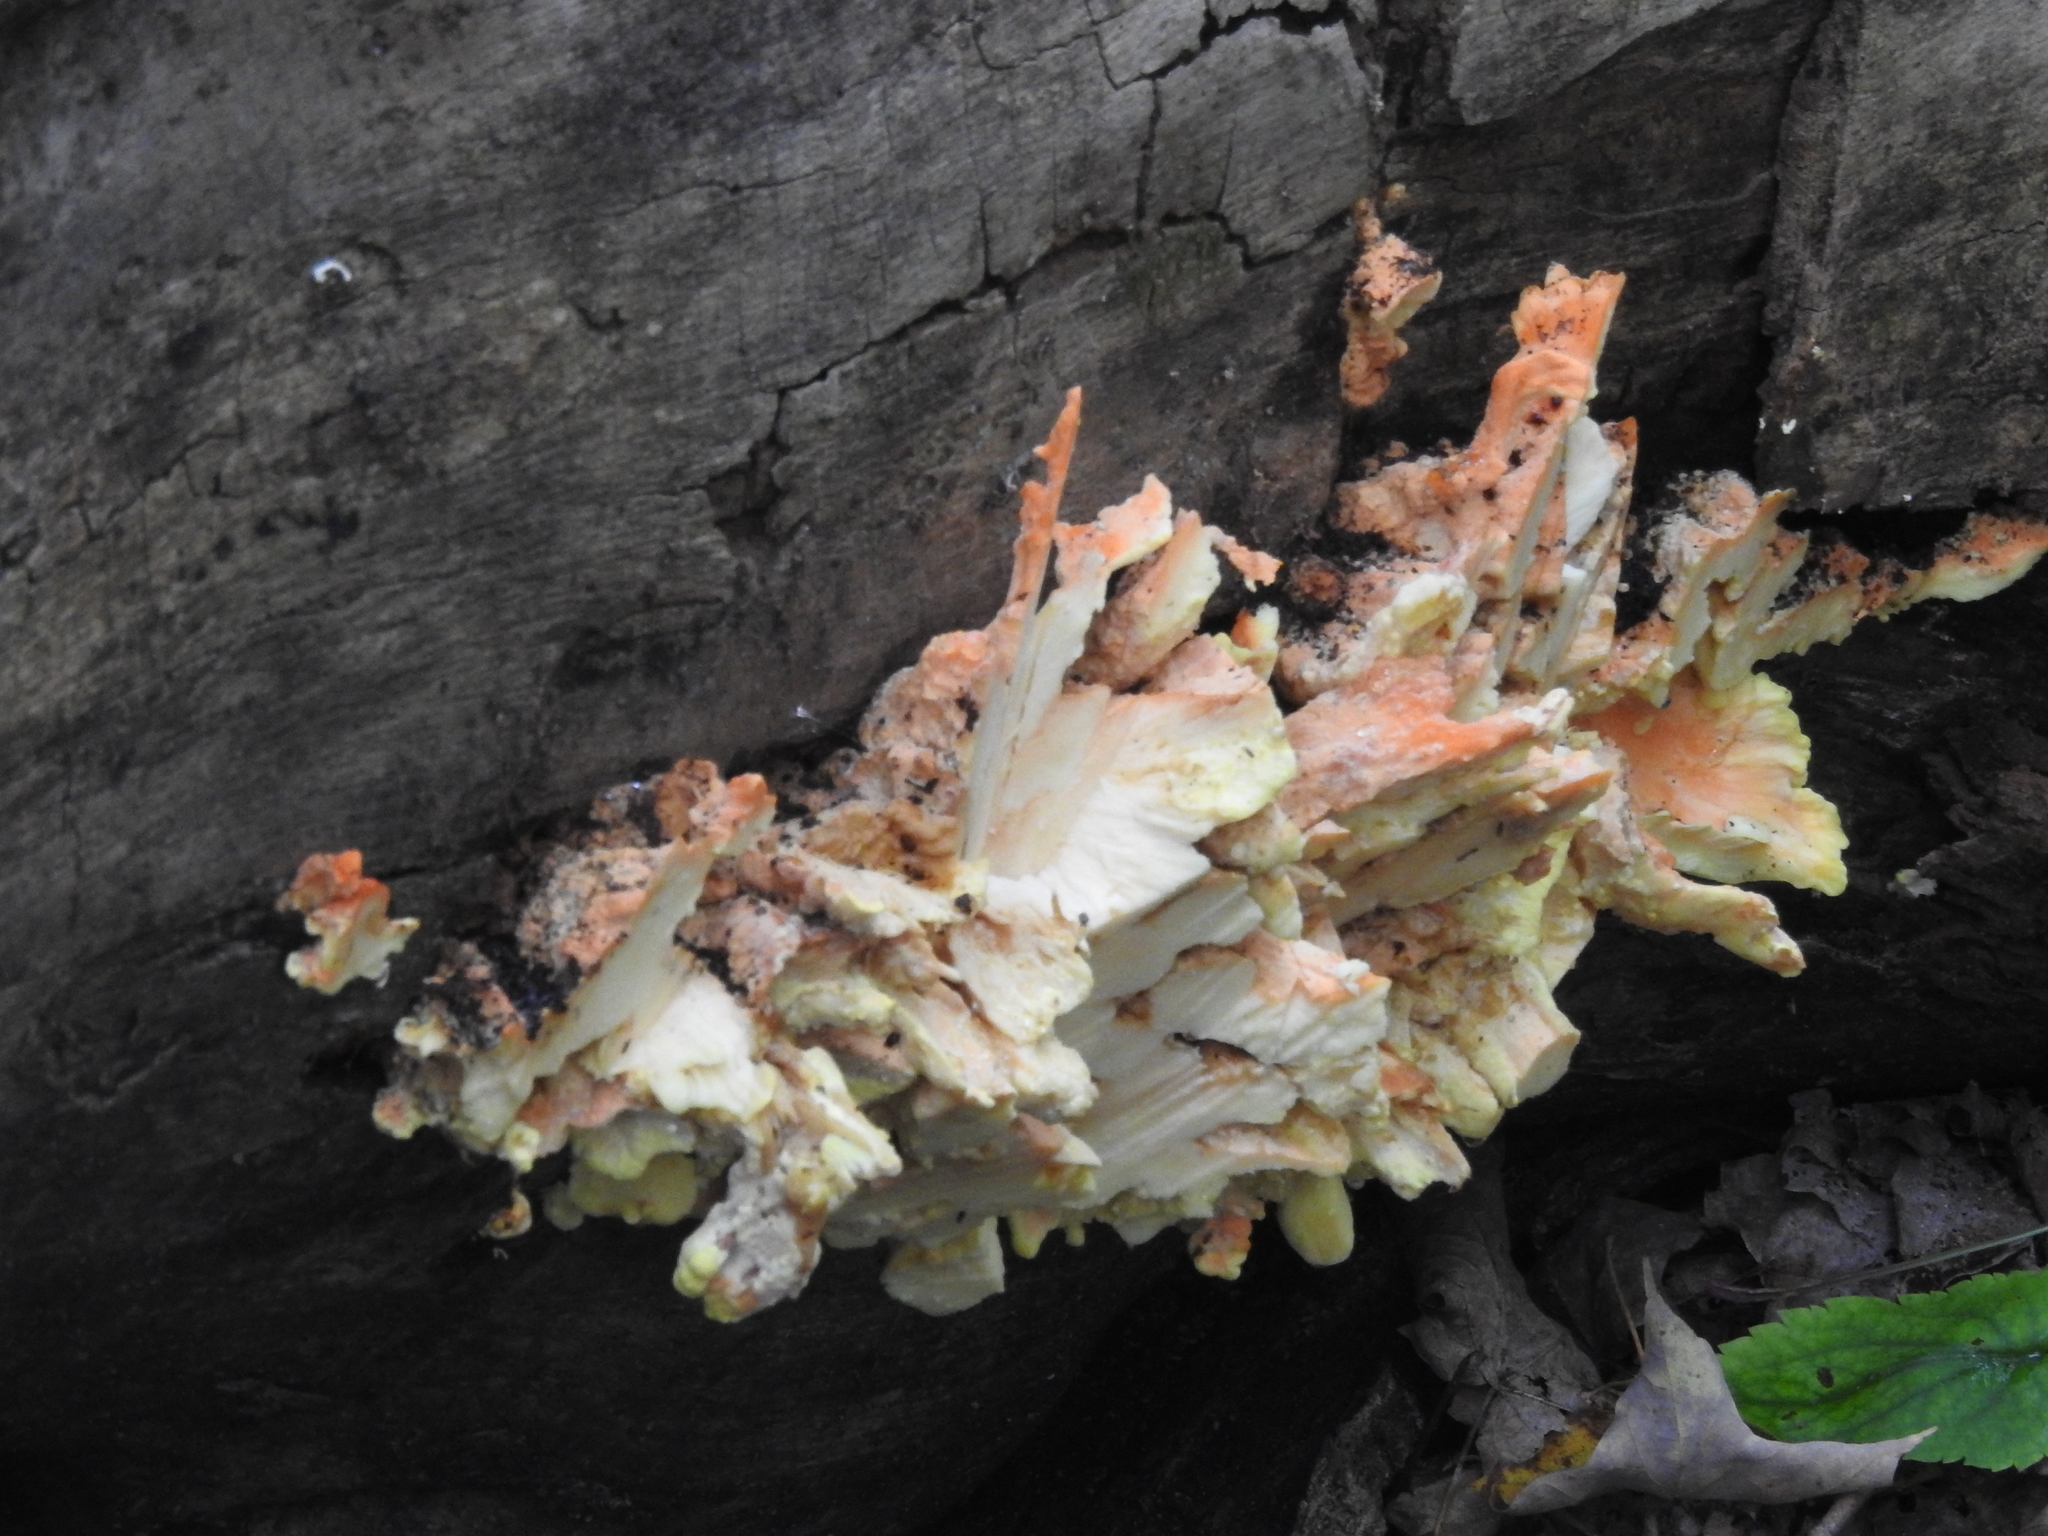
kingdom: Fungi
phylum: Basidiomycota
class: Agaricomycetes
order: Polyporales
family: Laetiporaceae
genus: Laetiporus
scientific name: Laetiporus sulphureus
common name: Chicken of the woods
